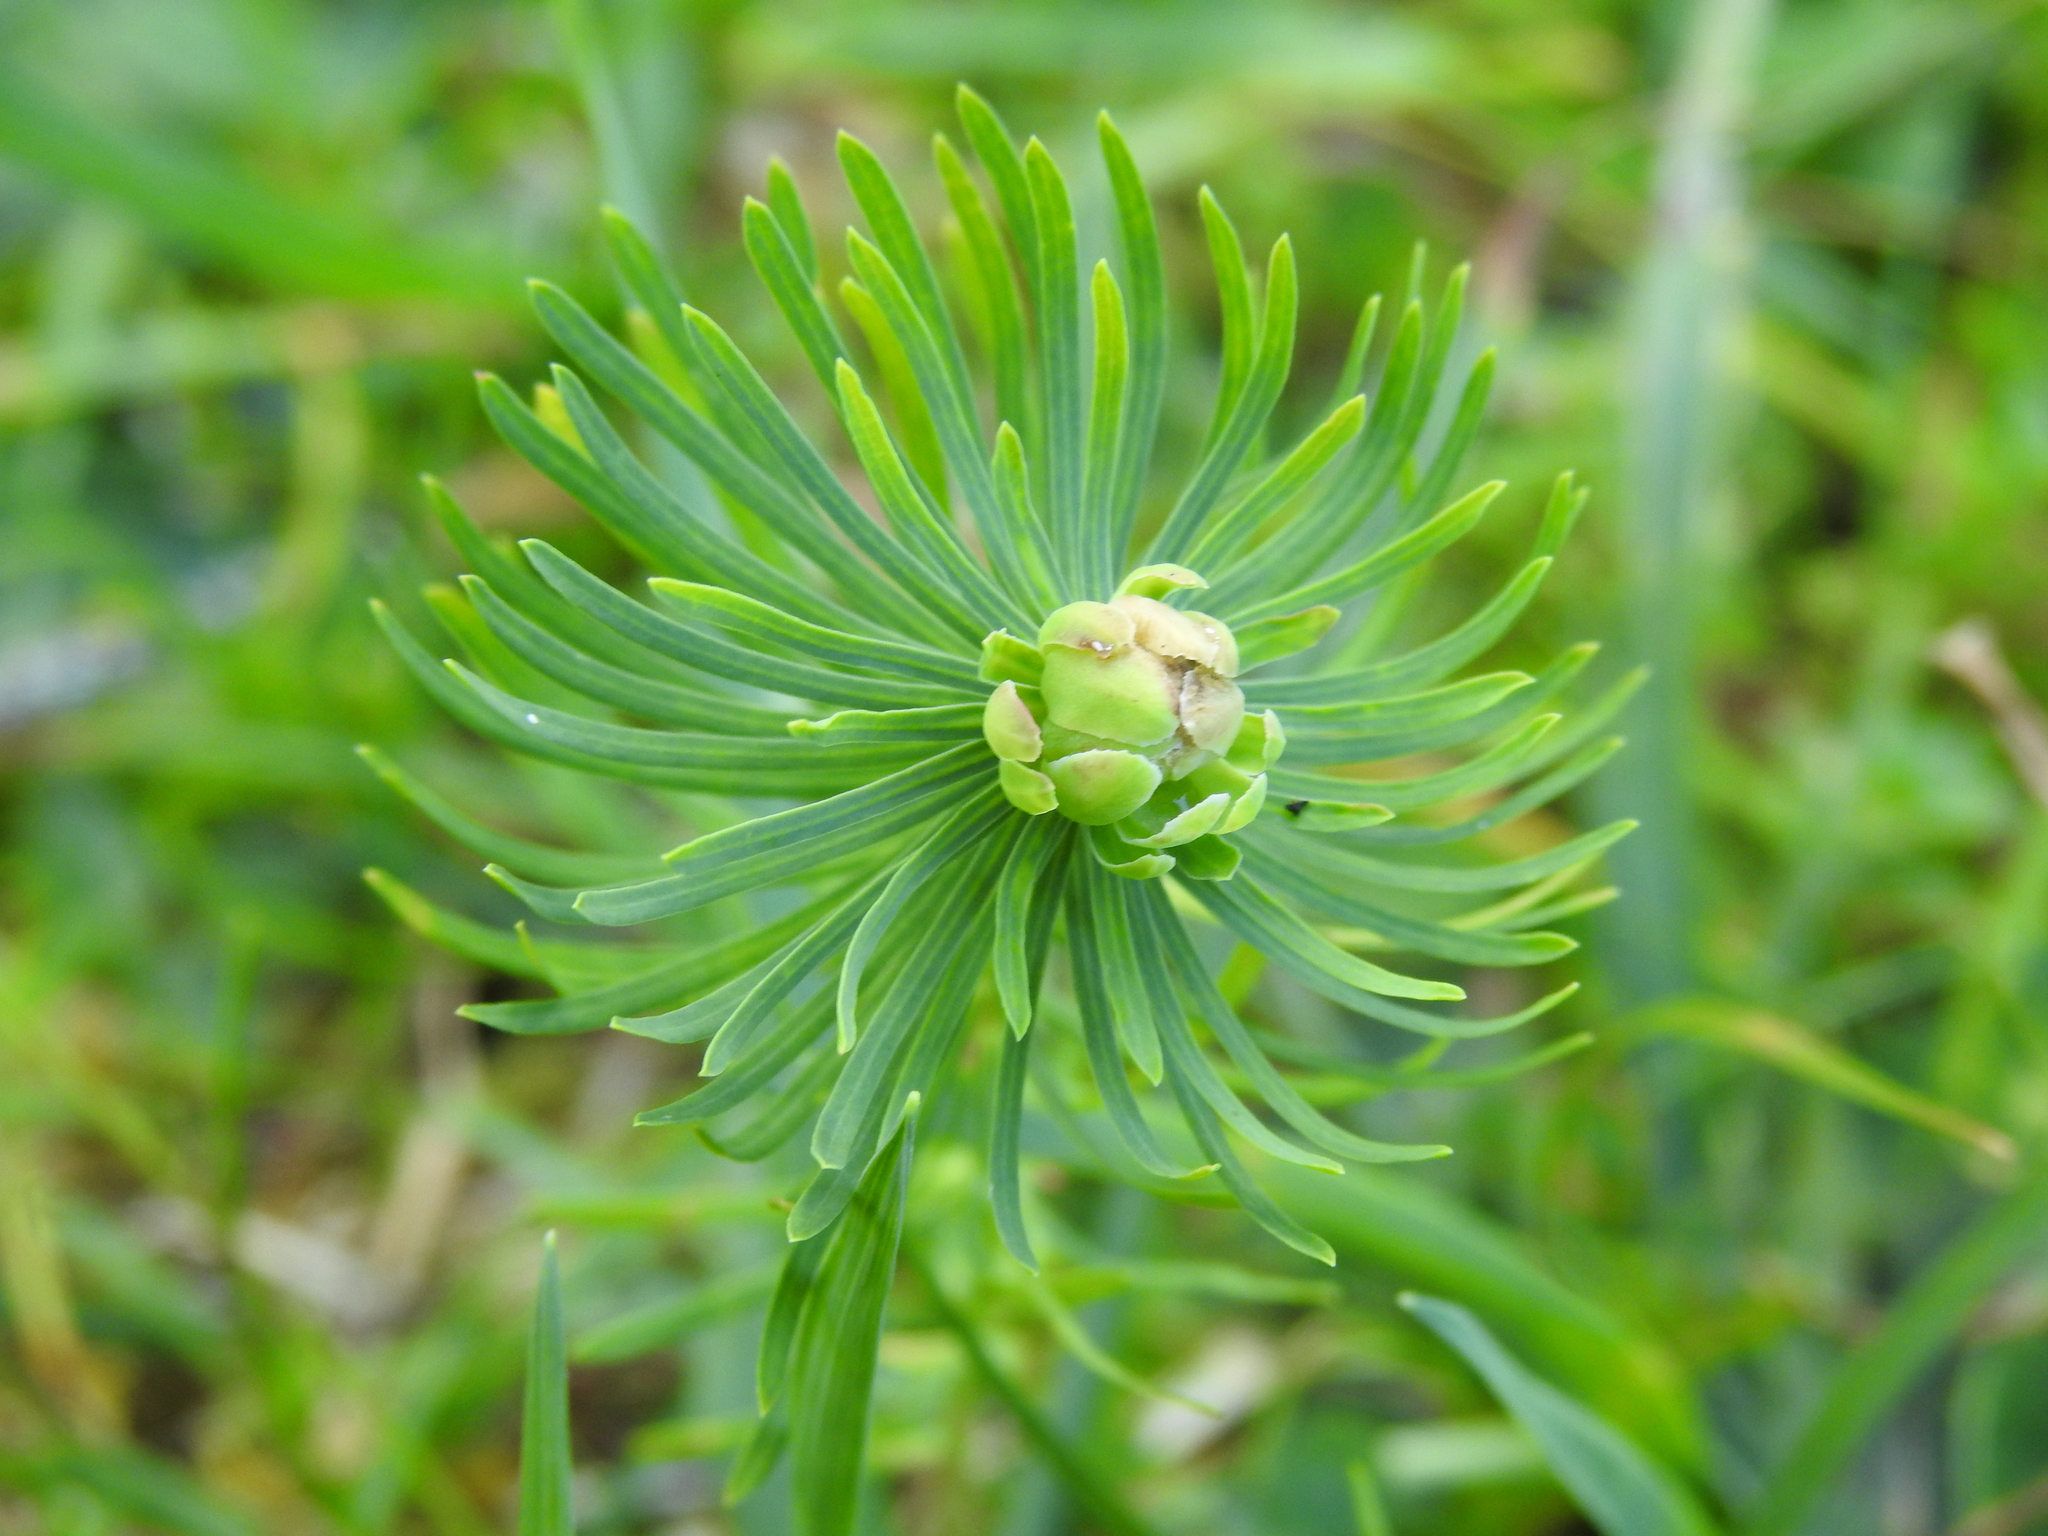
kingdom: Animalia
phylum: Arthropoda
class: Insecta
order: Diptera
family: Cecidomyiidae
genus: Spurgia
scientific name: Spurgia euphorbiae
